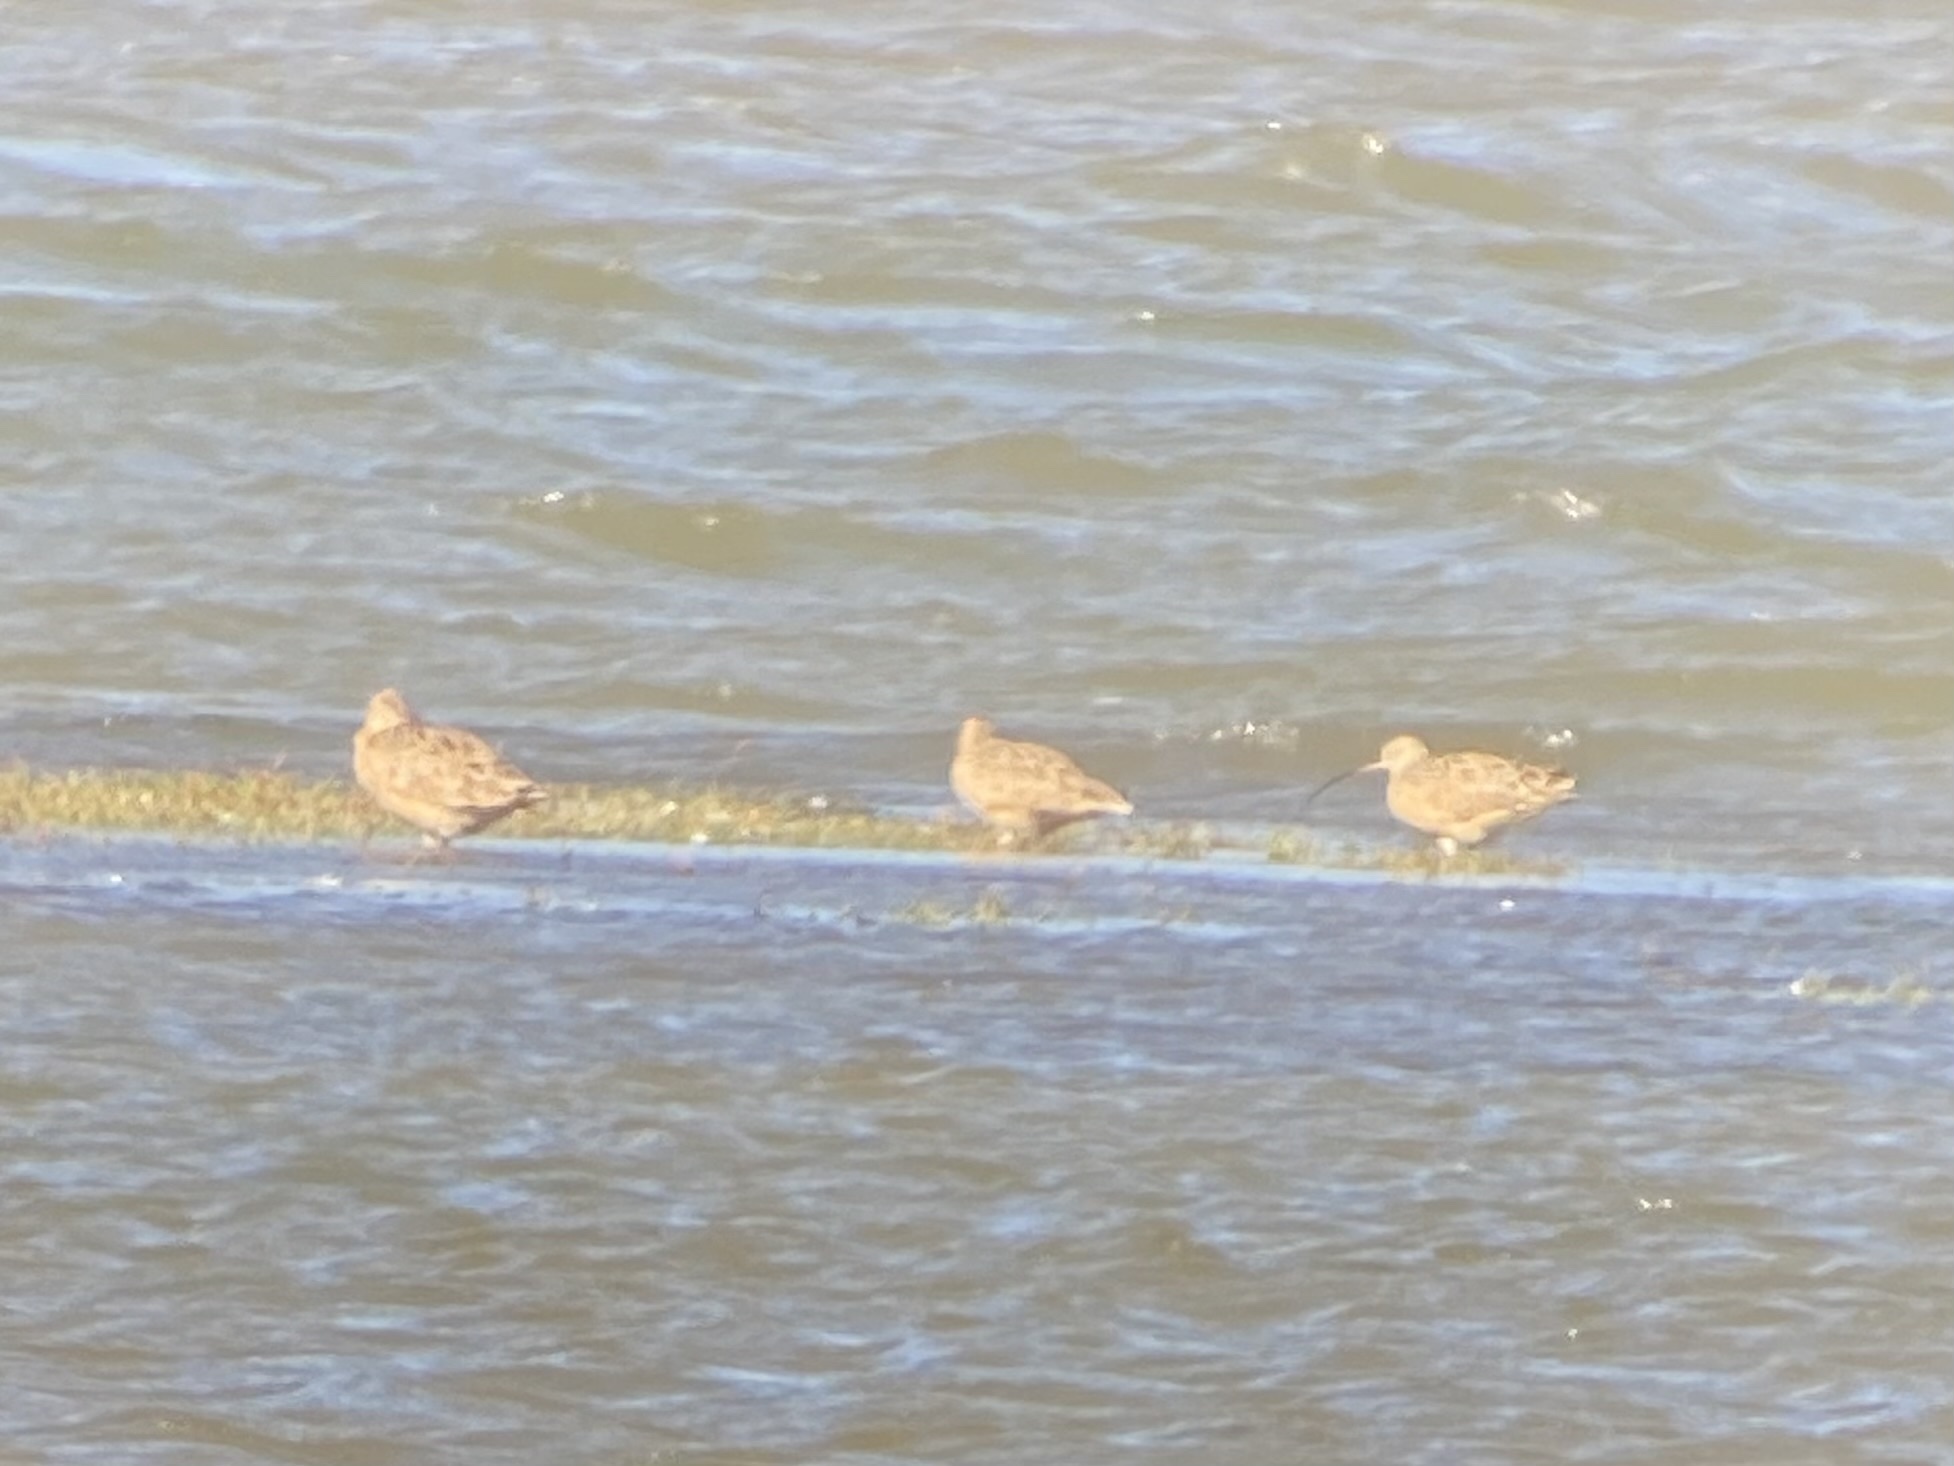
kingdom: Animalia
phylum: Chordata
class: Aves
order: Charadriiformes
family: Scolopacidae
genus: Numenius
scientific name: Numenius americanus
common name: Long-billed curlew
